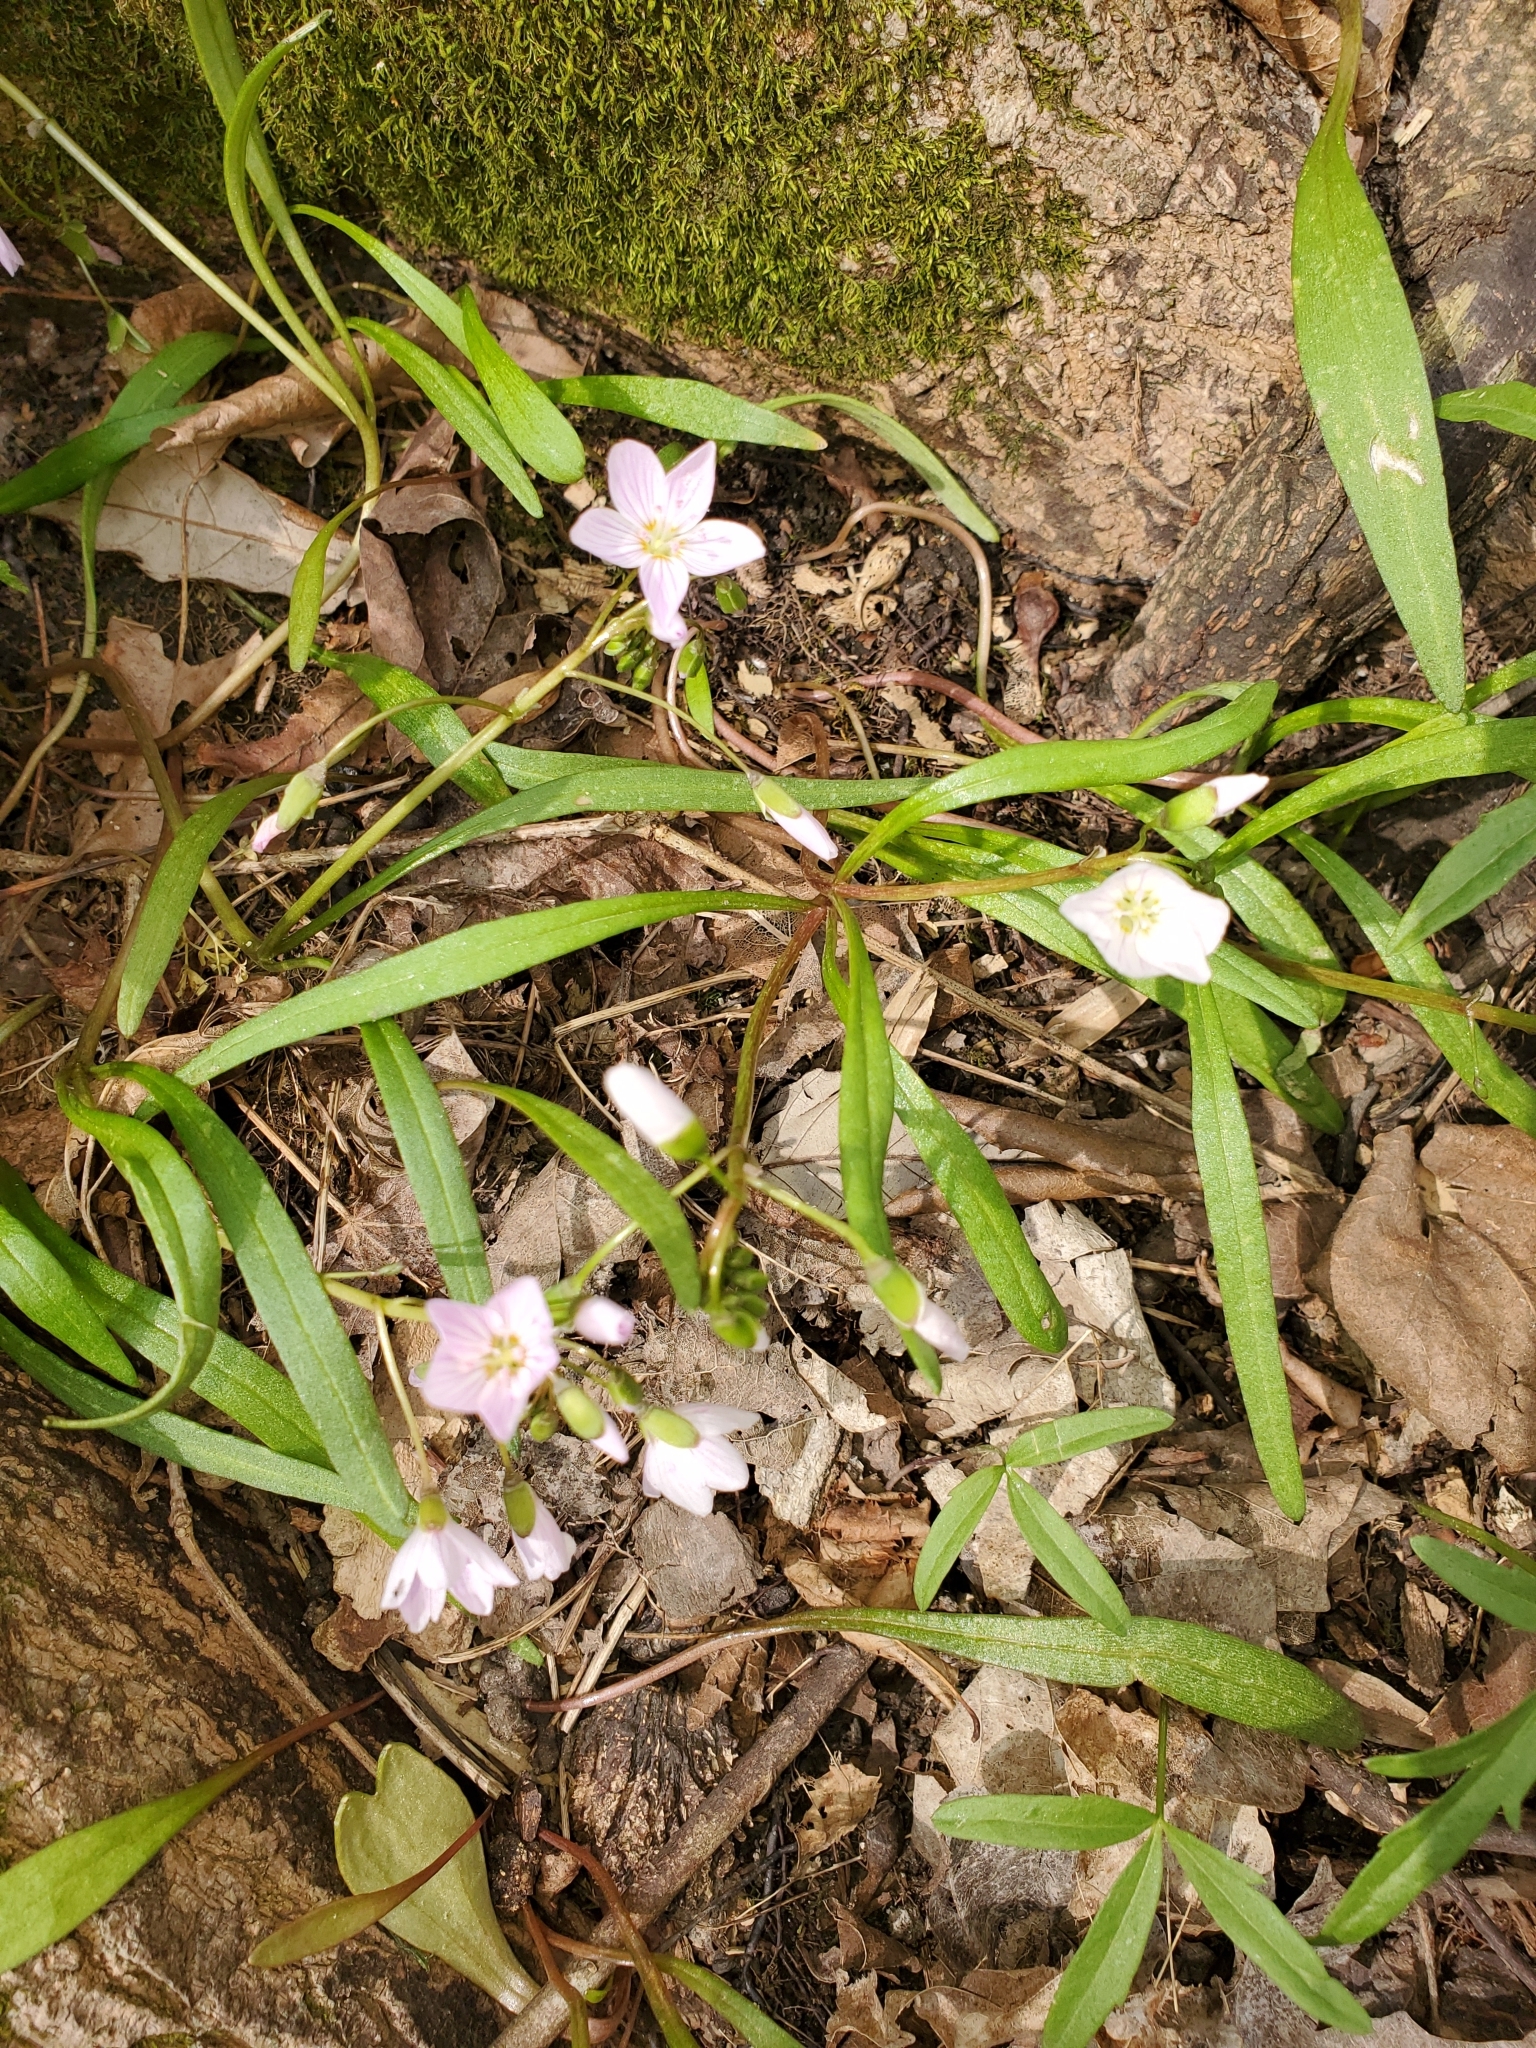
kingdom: Plantae
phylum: Tracheophyta
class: Magnoliopsida
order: Caryophyllales
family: Montiaceae
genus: Claytonia
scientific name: Claytonia virginica
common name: Virginia springbeauty
